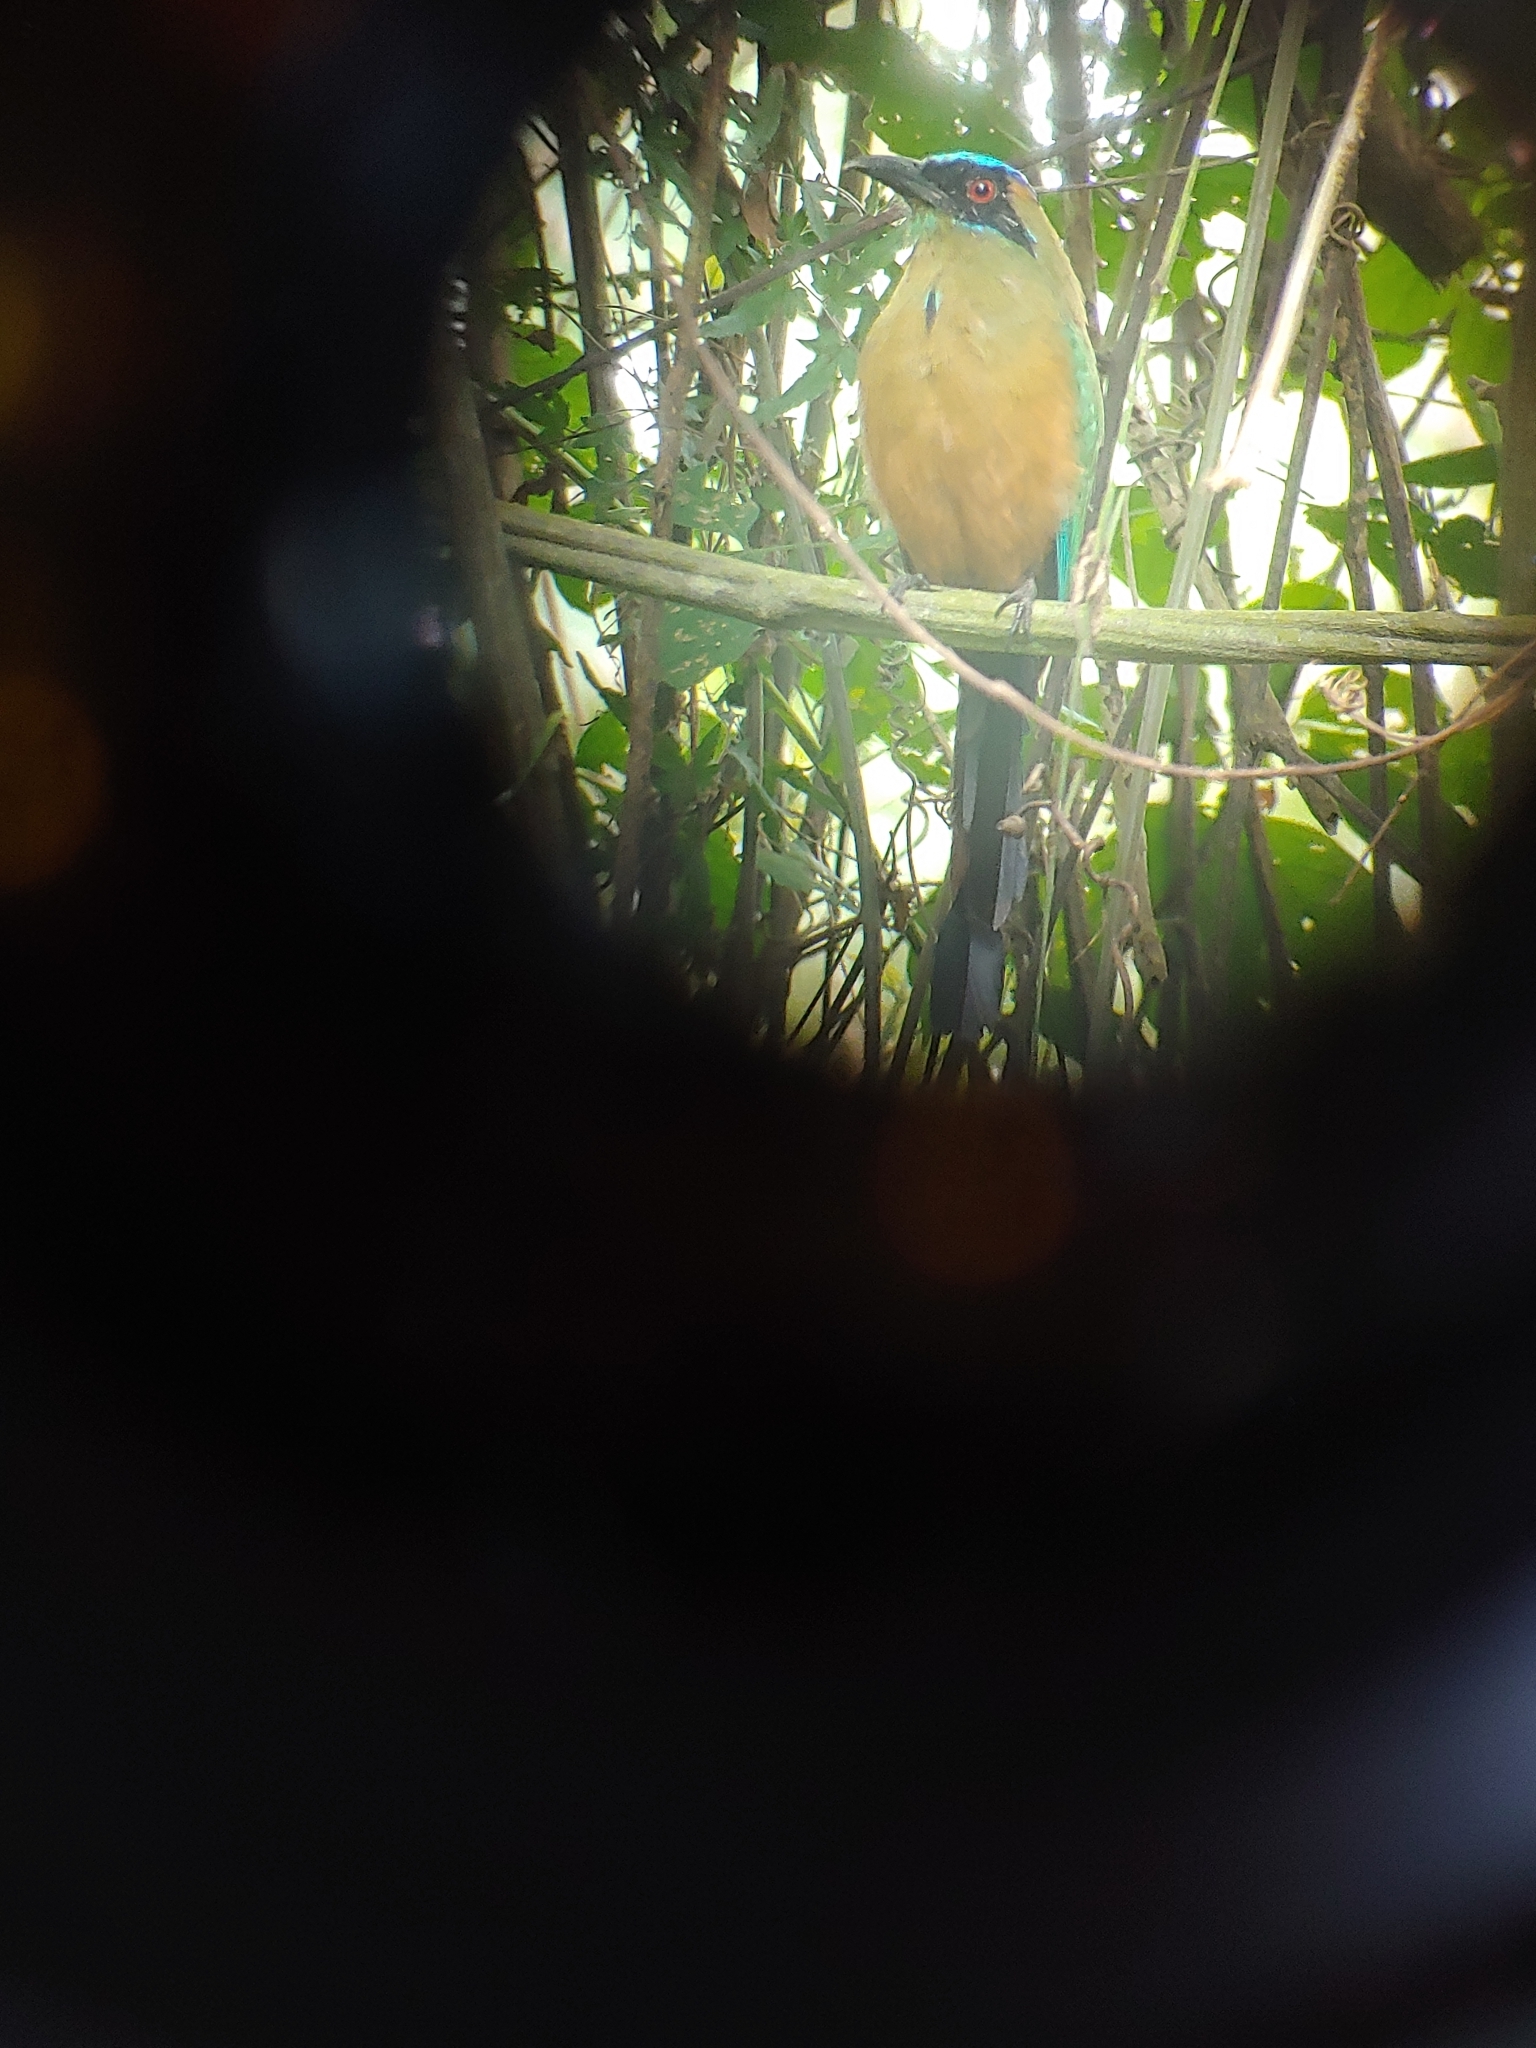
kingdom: Animalia
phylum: Chordata
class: Aves
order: Coraciiformes
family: Momotidae
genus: Momotus
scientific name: Momotus subrufescens
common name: Whooping motmot
